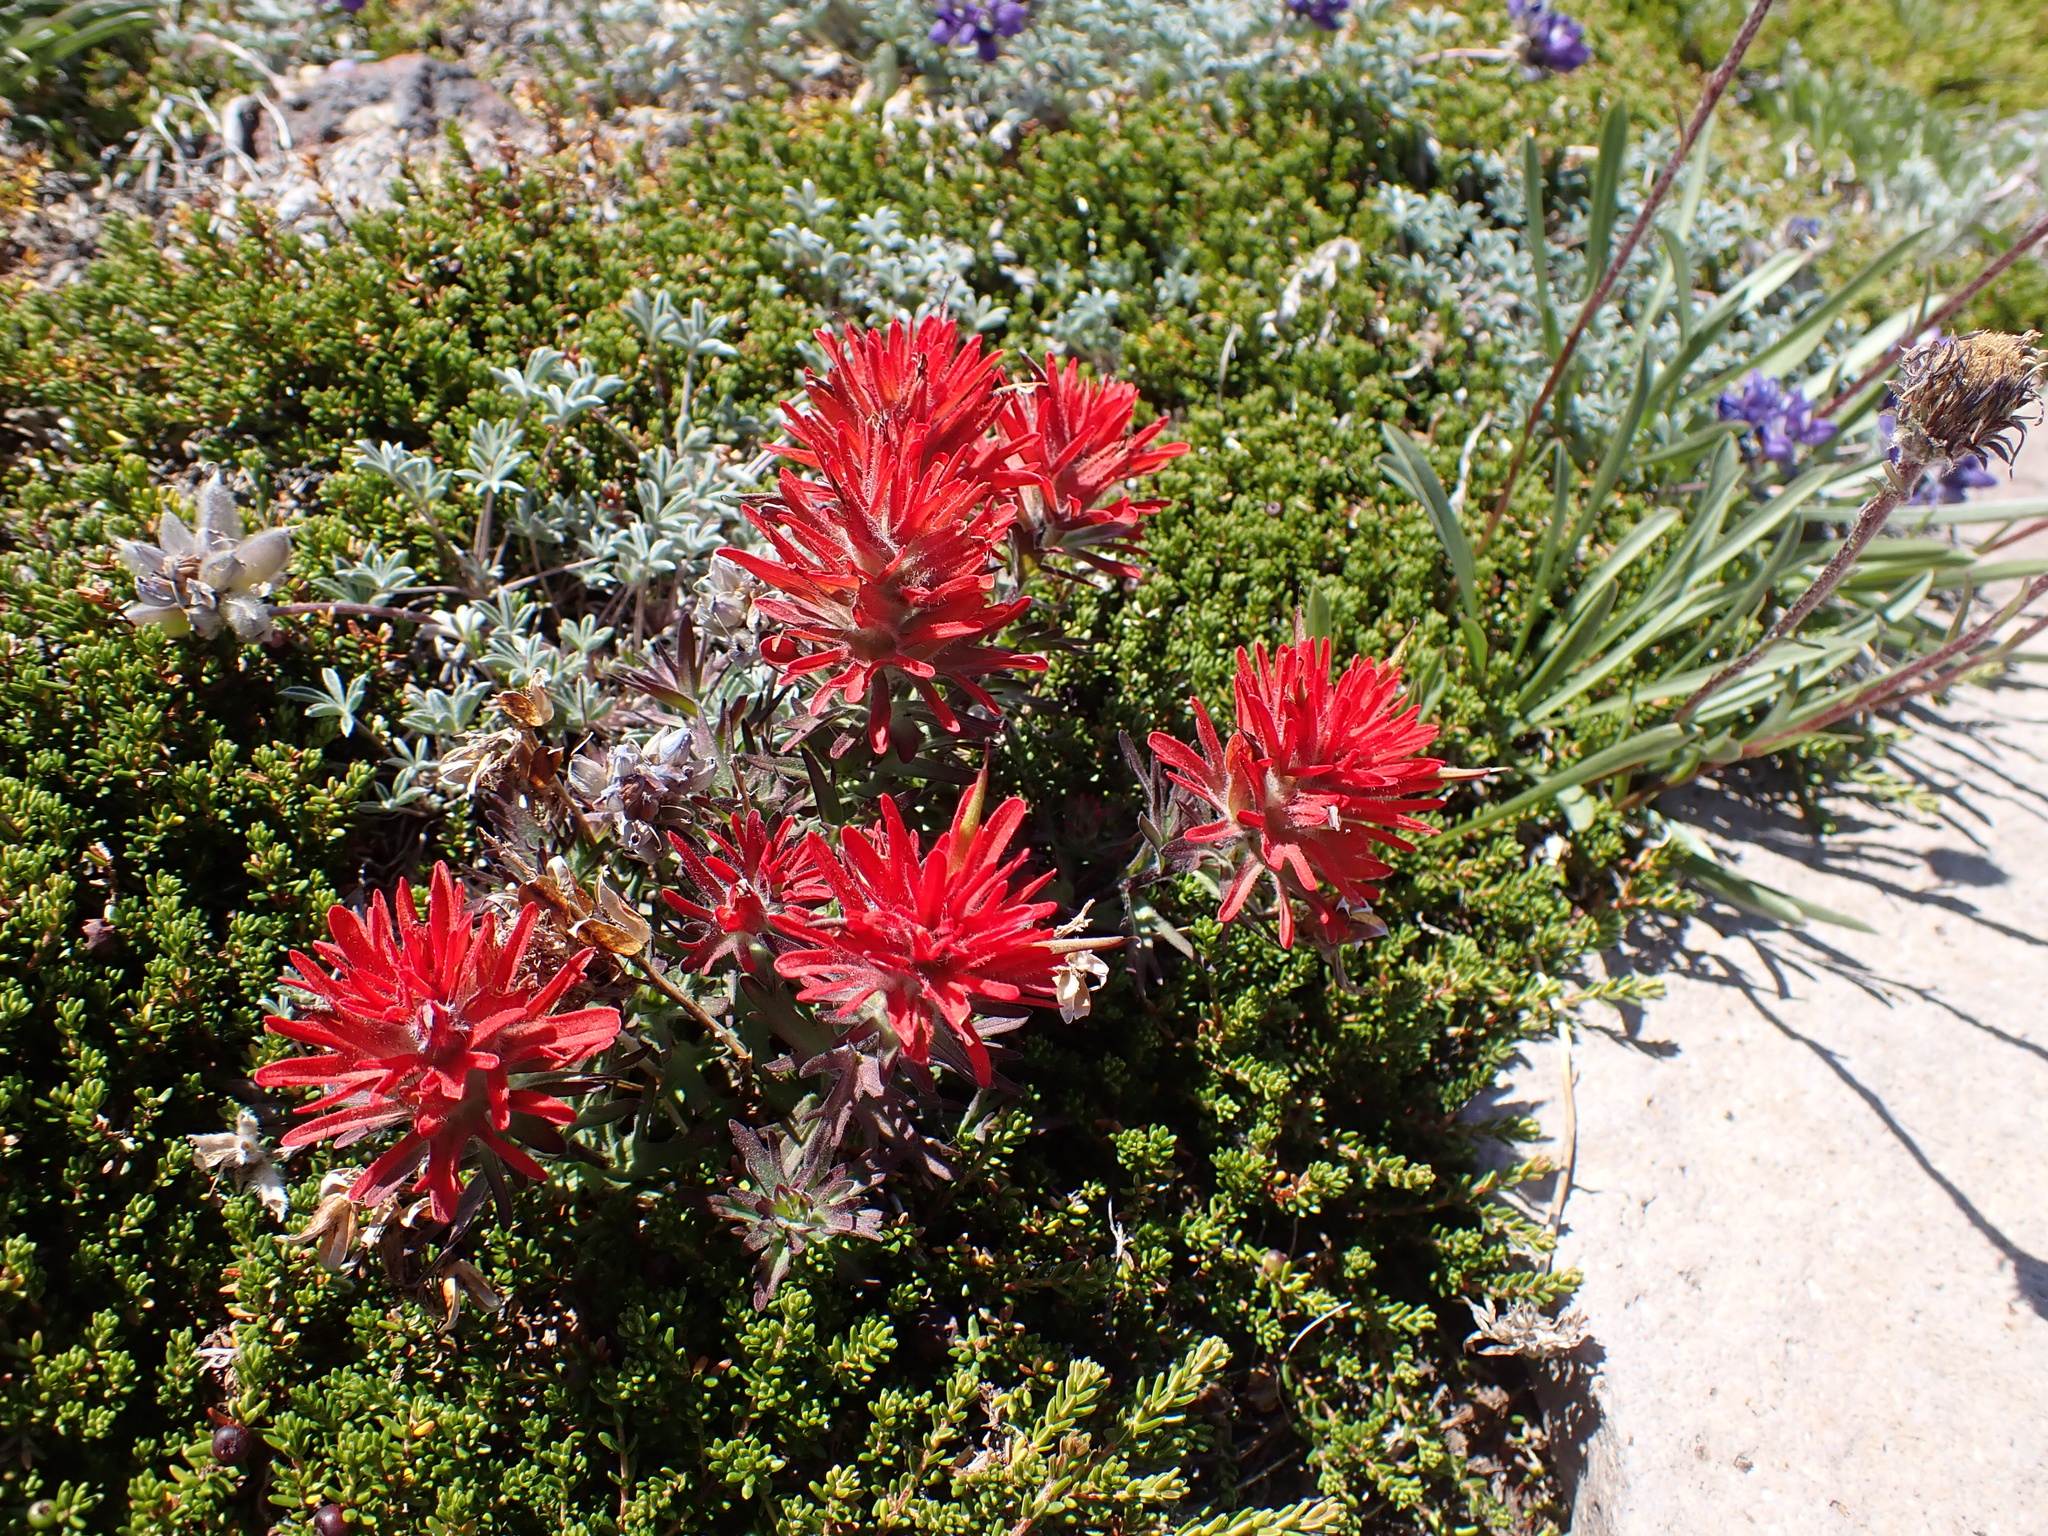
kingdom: Plantae
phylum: Tracheophyta
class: Magnoliopsida
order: Lamiales
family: Orobanchaceae
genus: Castilleja
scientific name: Castilleja rupicola
